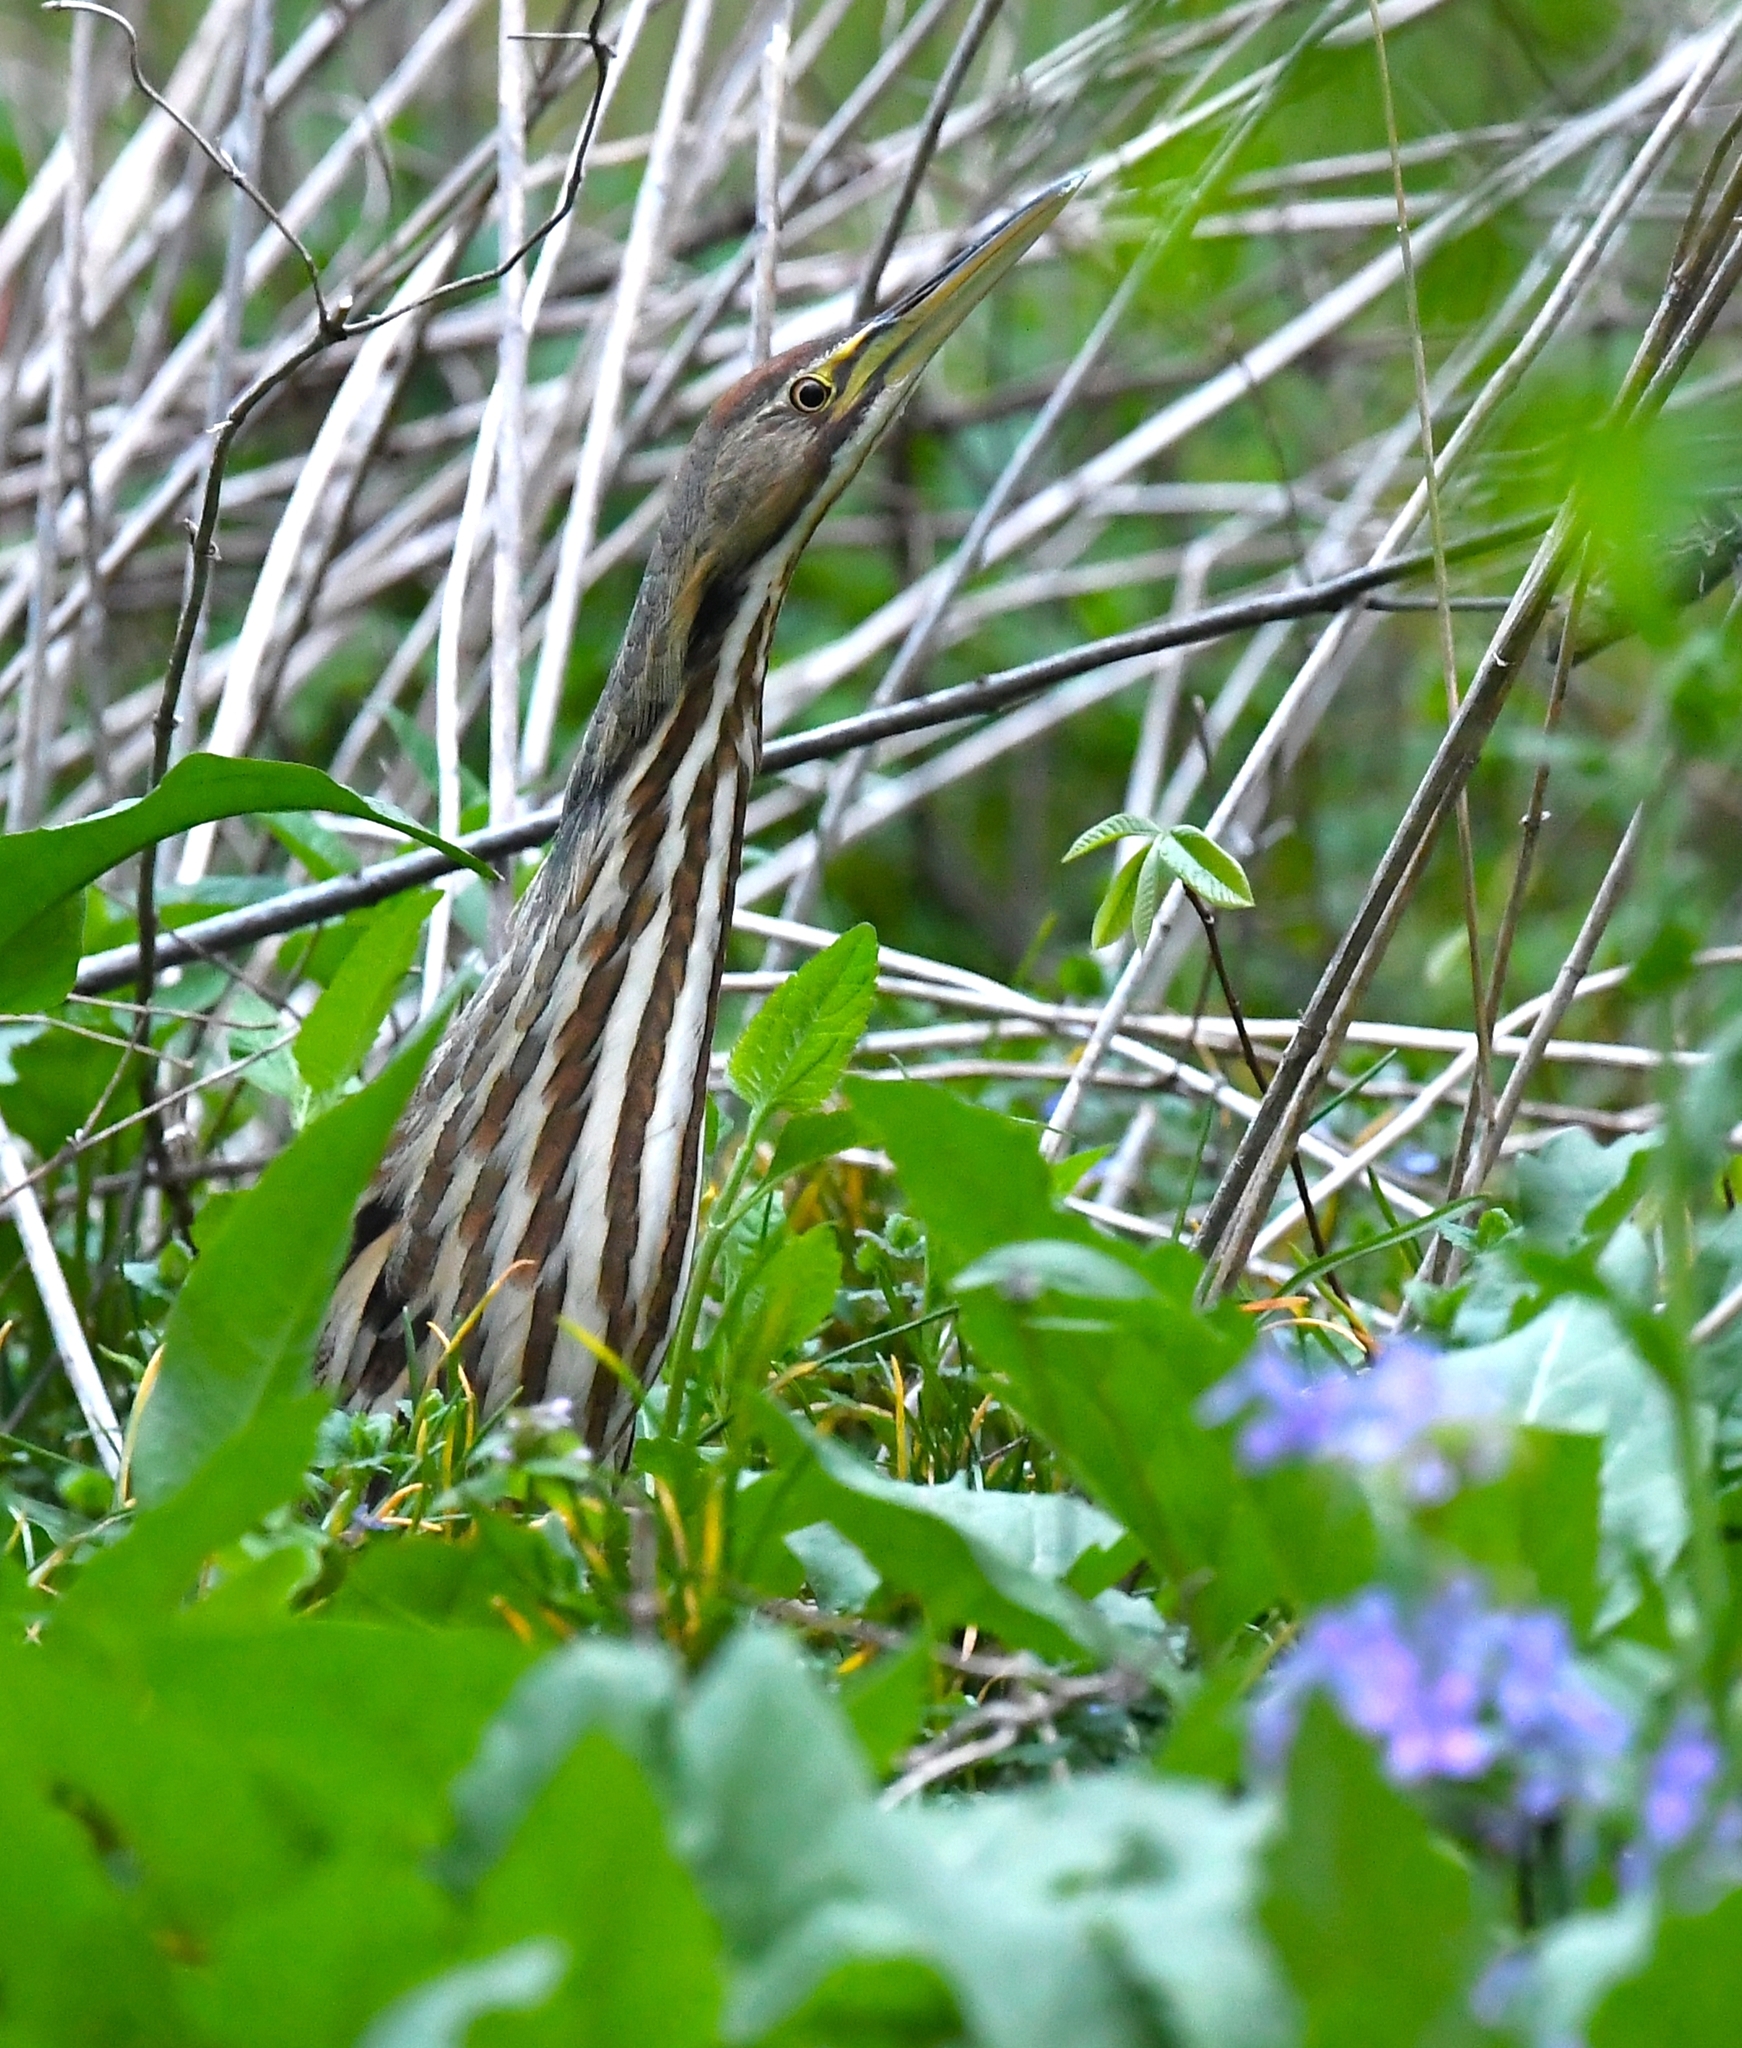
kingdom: Animalia
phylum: Chordata
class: Aves
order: Pelecaniformes
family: Ardeidae
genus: Botaurus
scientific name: Botaurus lentiginosus
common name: American bittern
